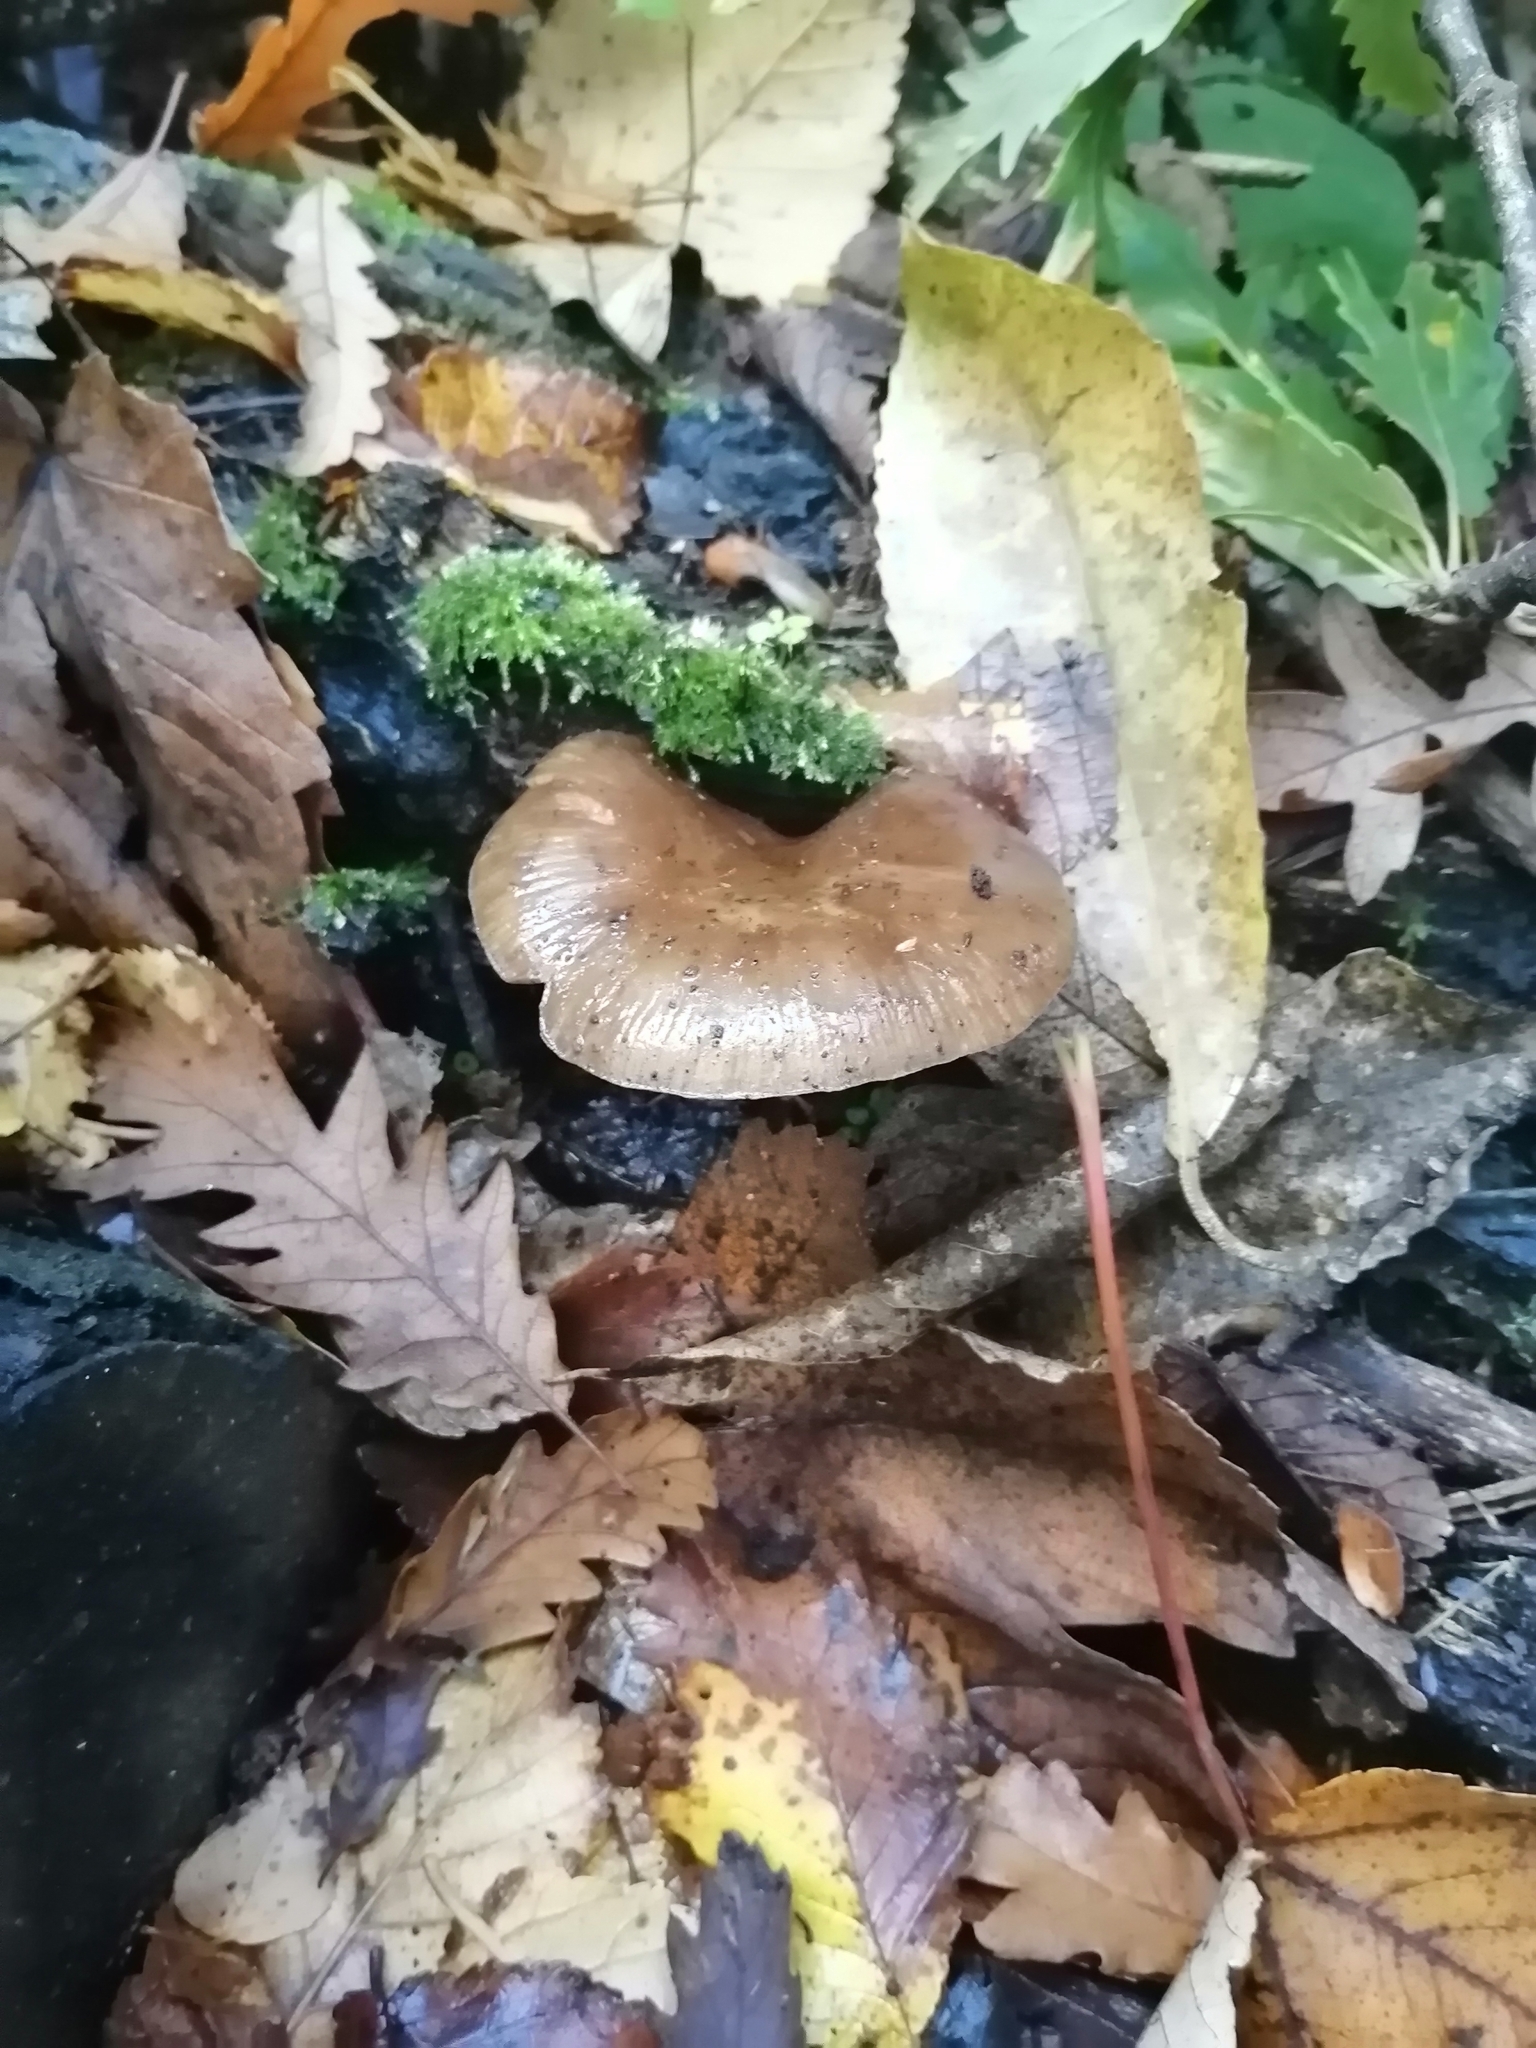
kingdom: Fungi
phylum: Basidiomycota
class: Agaricomycetes
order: Agaricales
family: Physalacriaceae
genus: Armillaria
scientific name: Armillaria novae-zelandiae
